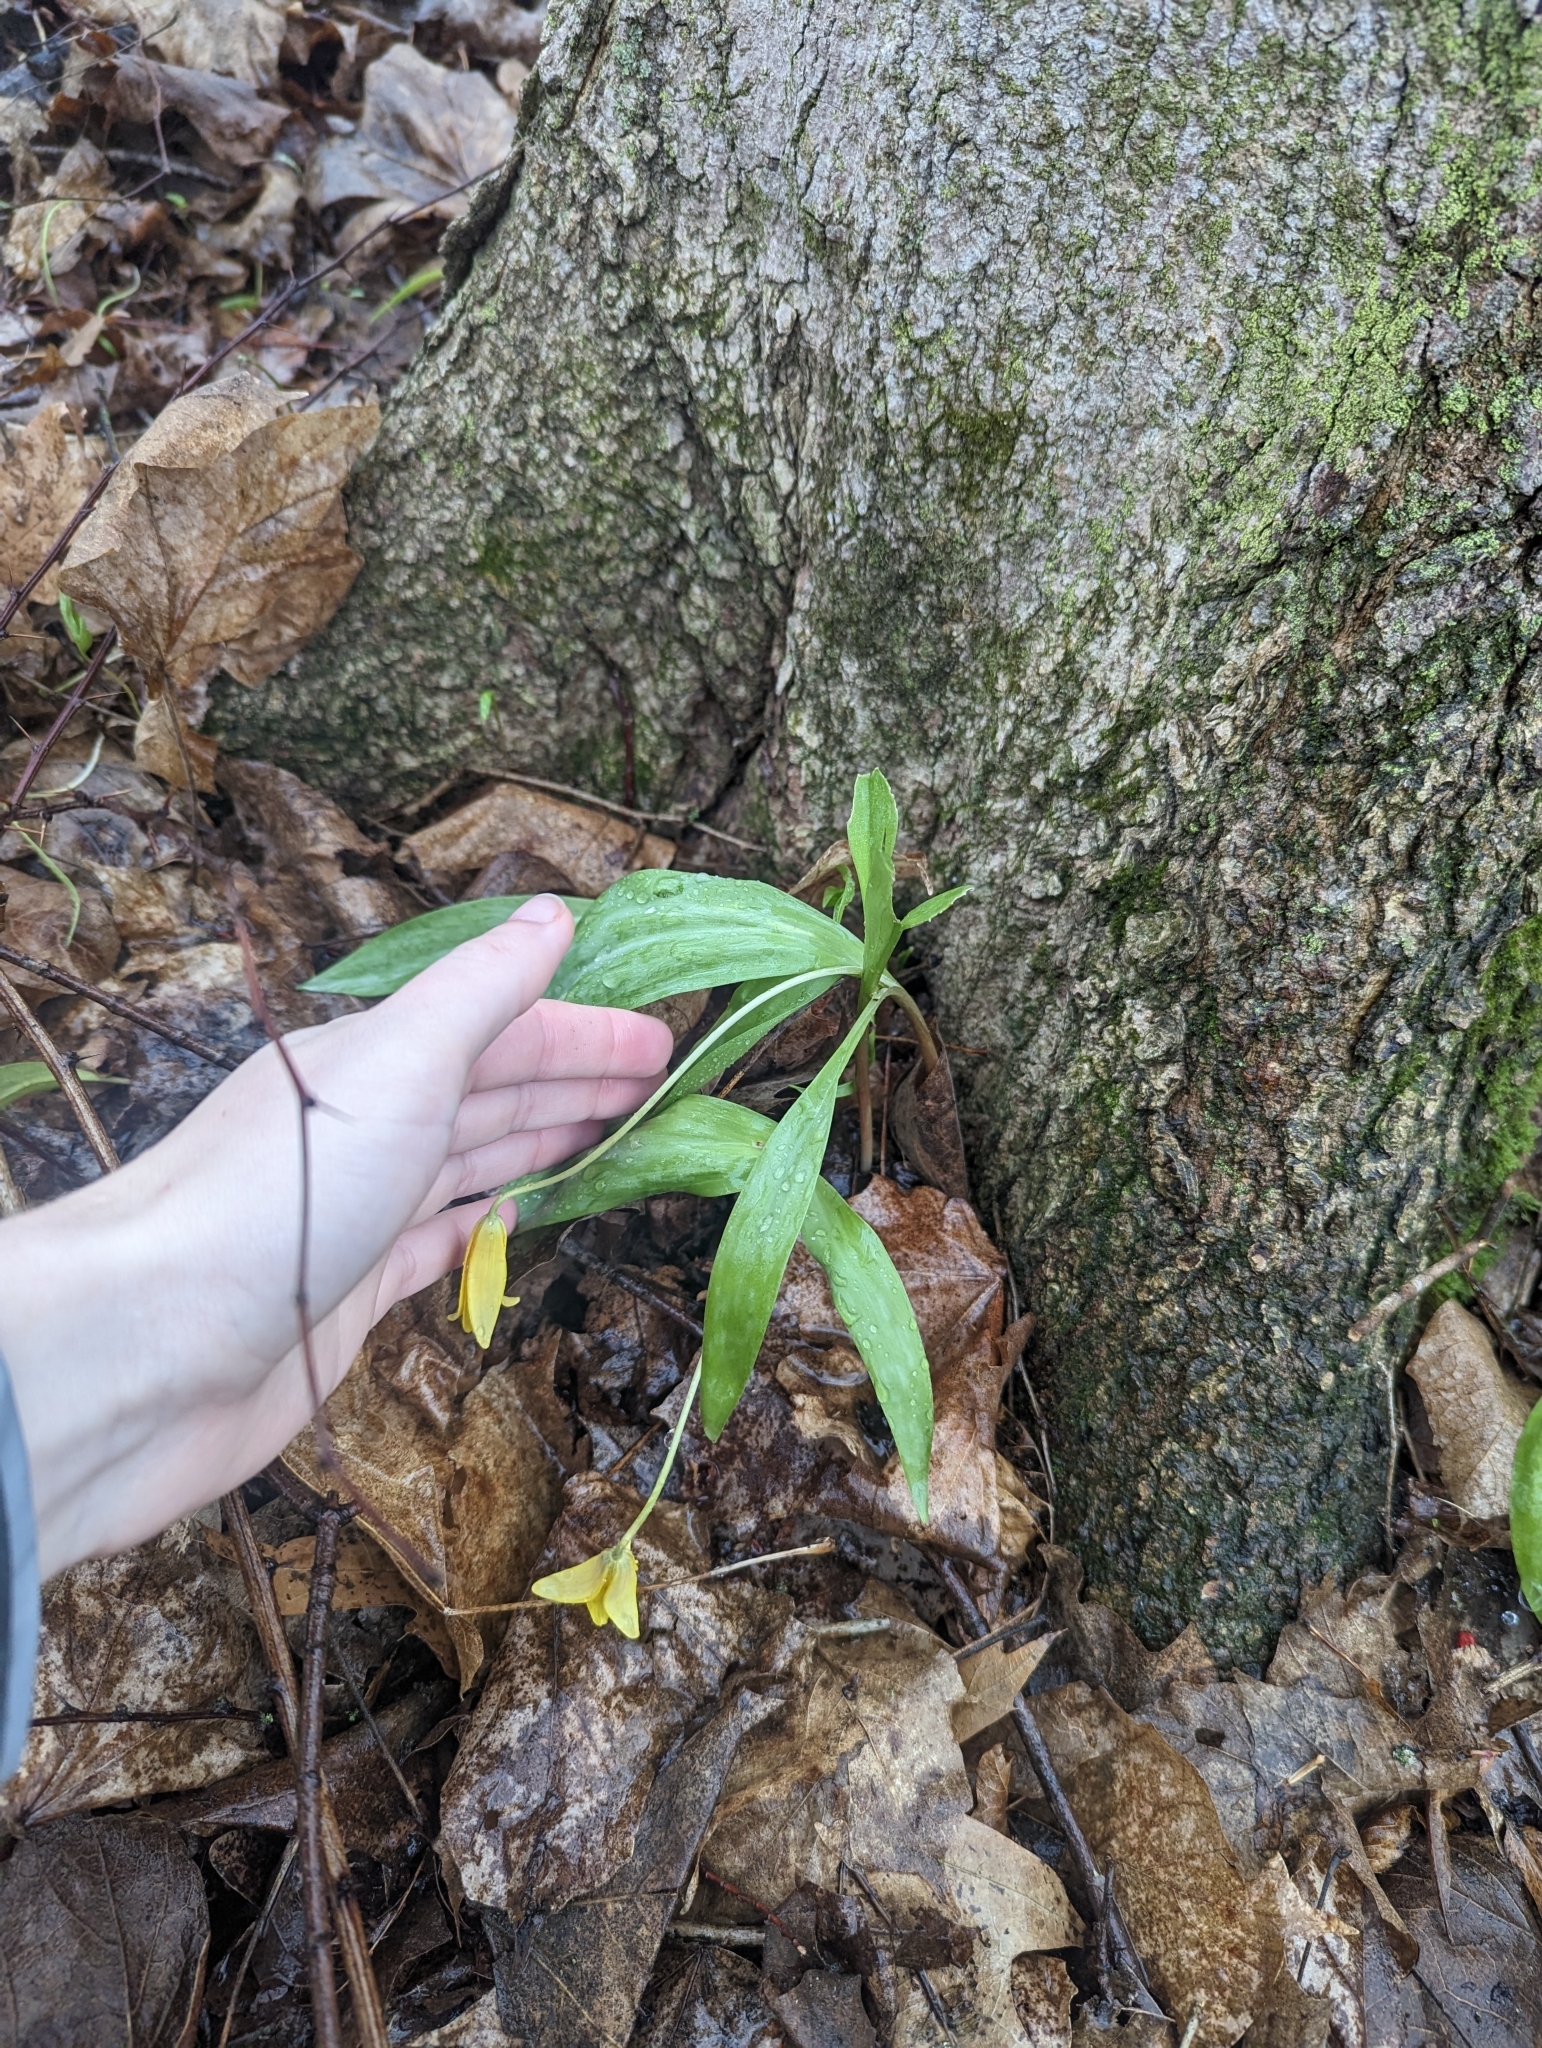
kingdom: Plantae
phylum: Tracheophyta
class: Liliopsida
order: Liliales
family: Liliaceae
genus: Erythronium
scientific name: Erythronium americanum
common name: Yellow adder's-tongue
